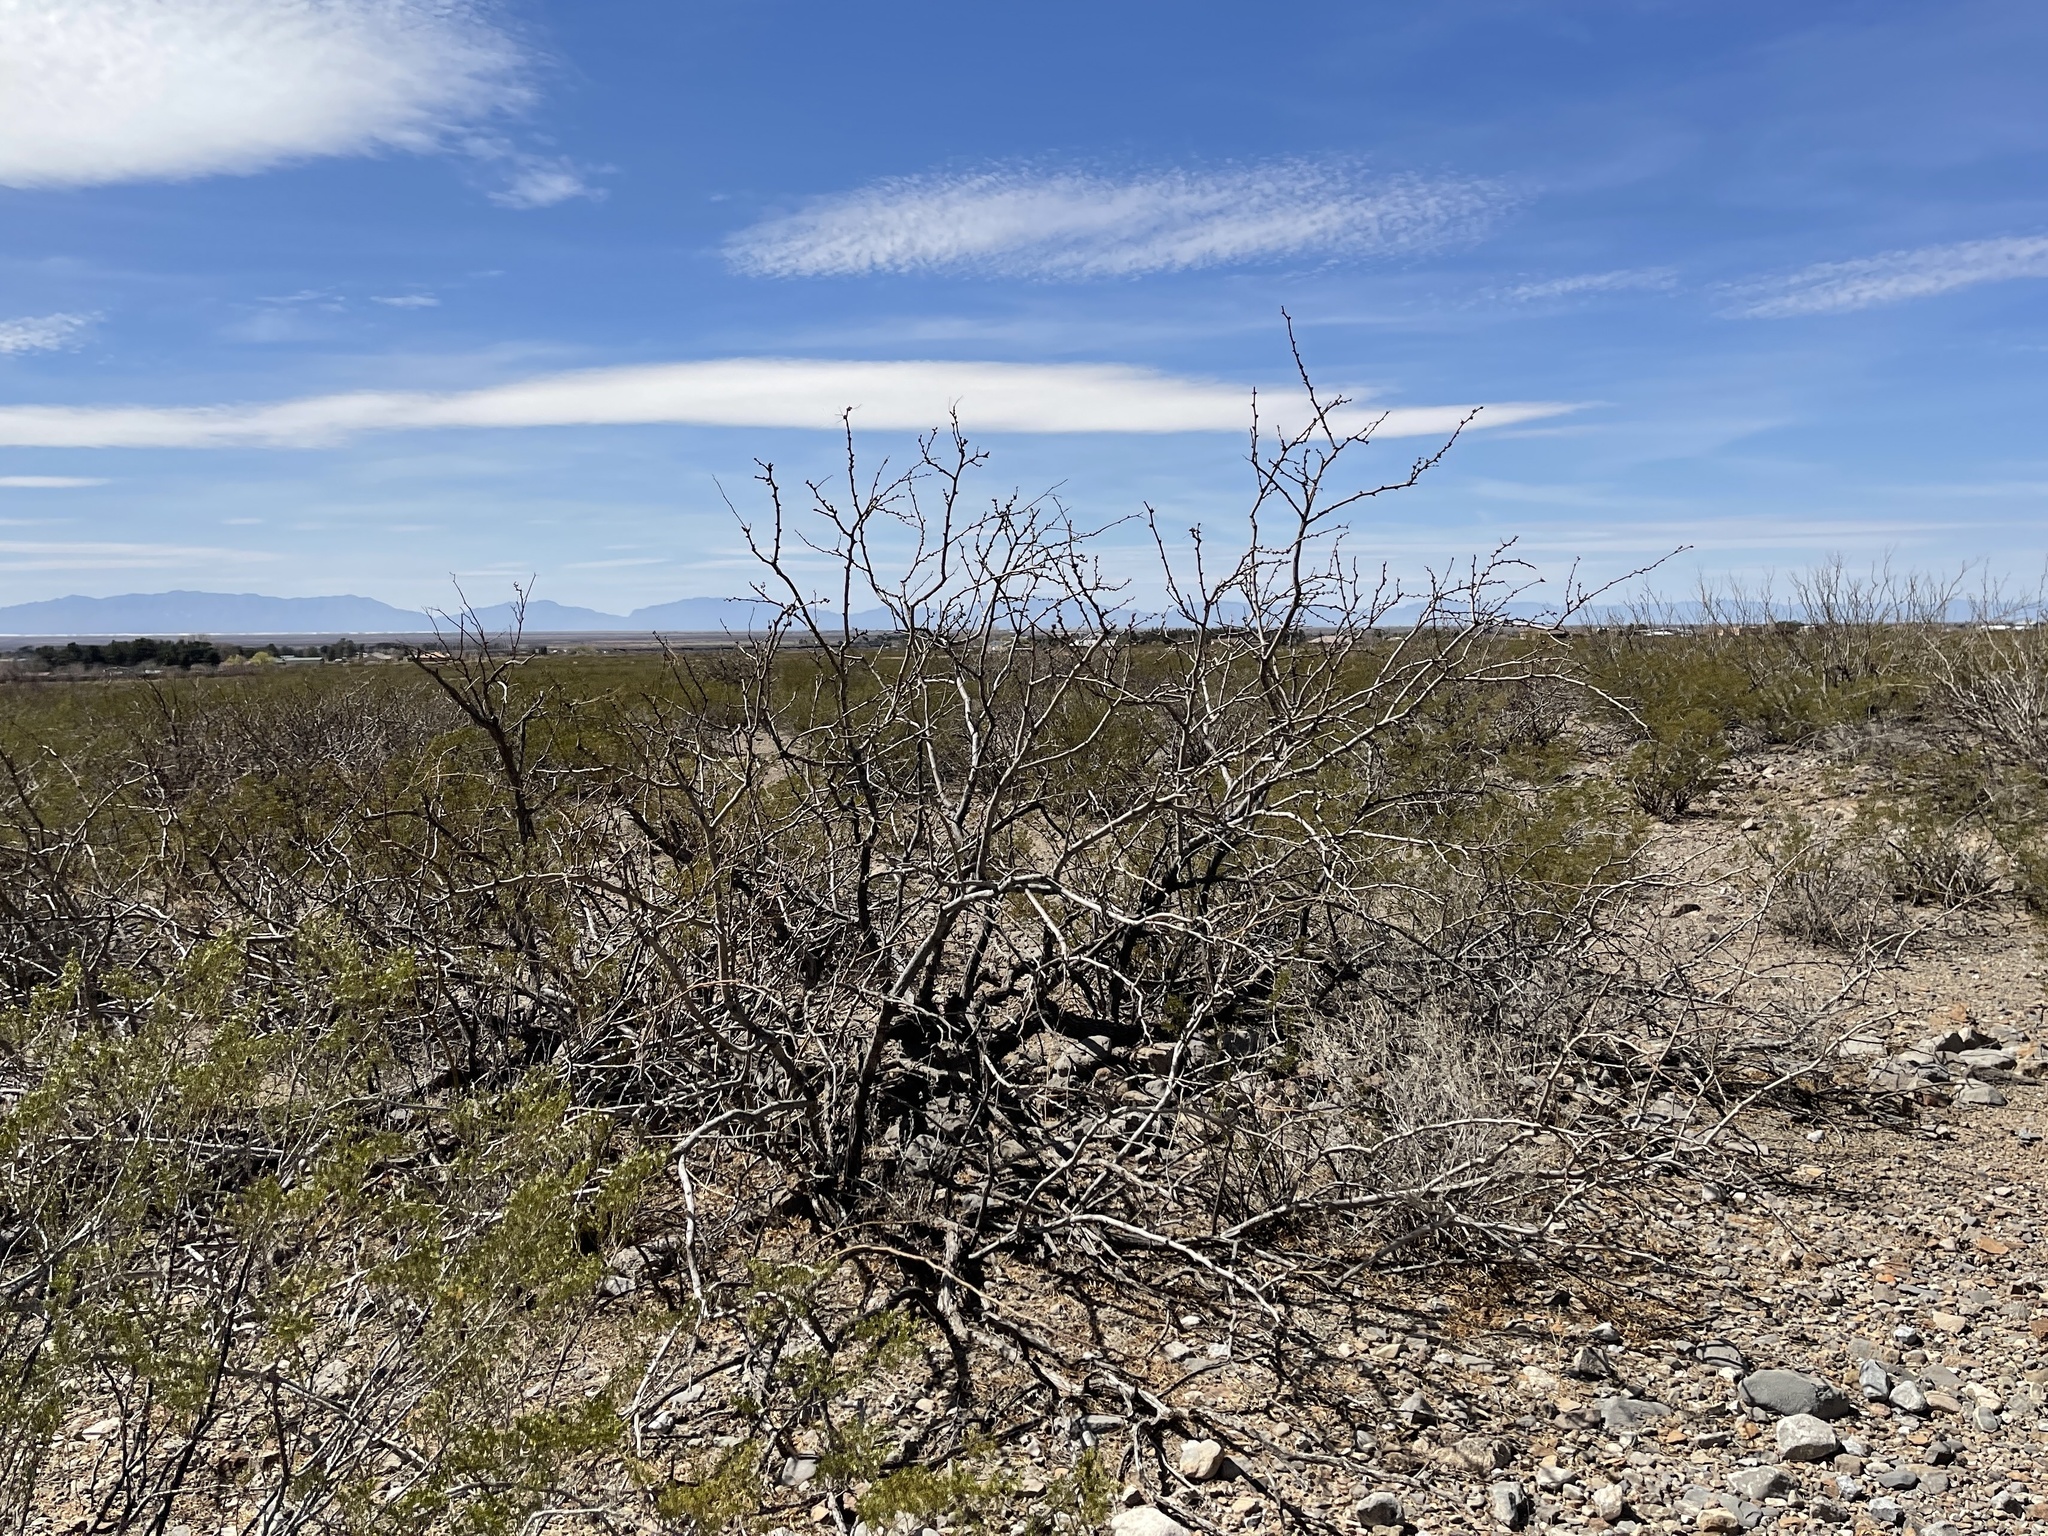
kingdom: Plantae
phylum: Tracheophyta
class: Magnoliopsida
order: Fabales
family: Fabaceae
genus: Prosopis
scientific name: Prosopis glandulosa
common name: Honey mesquite
